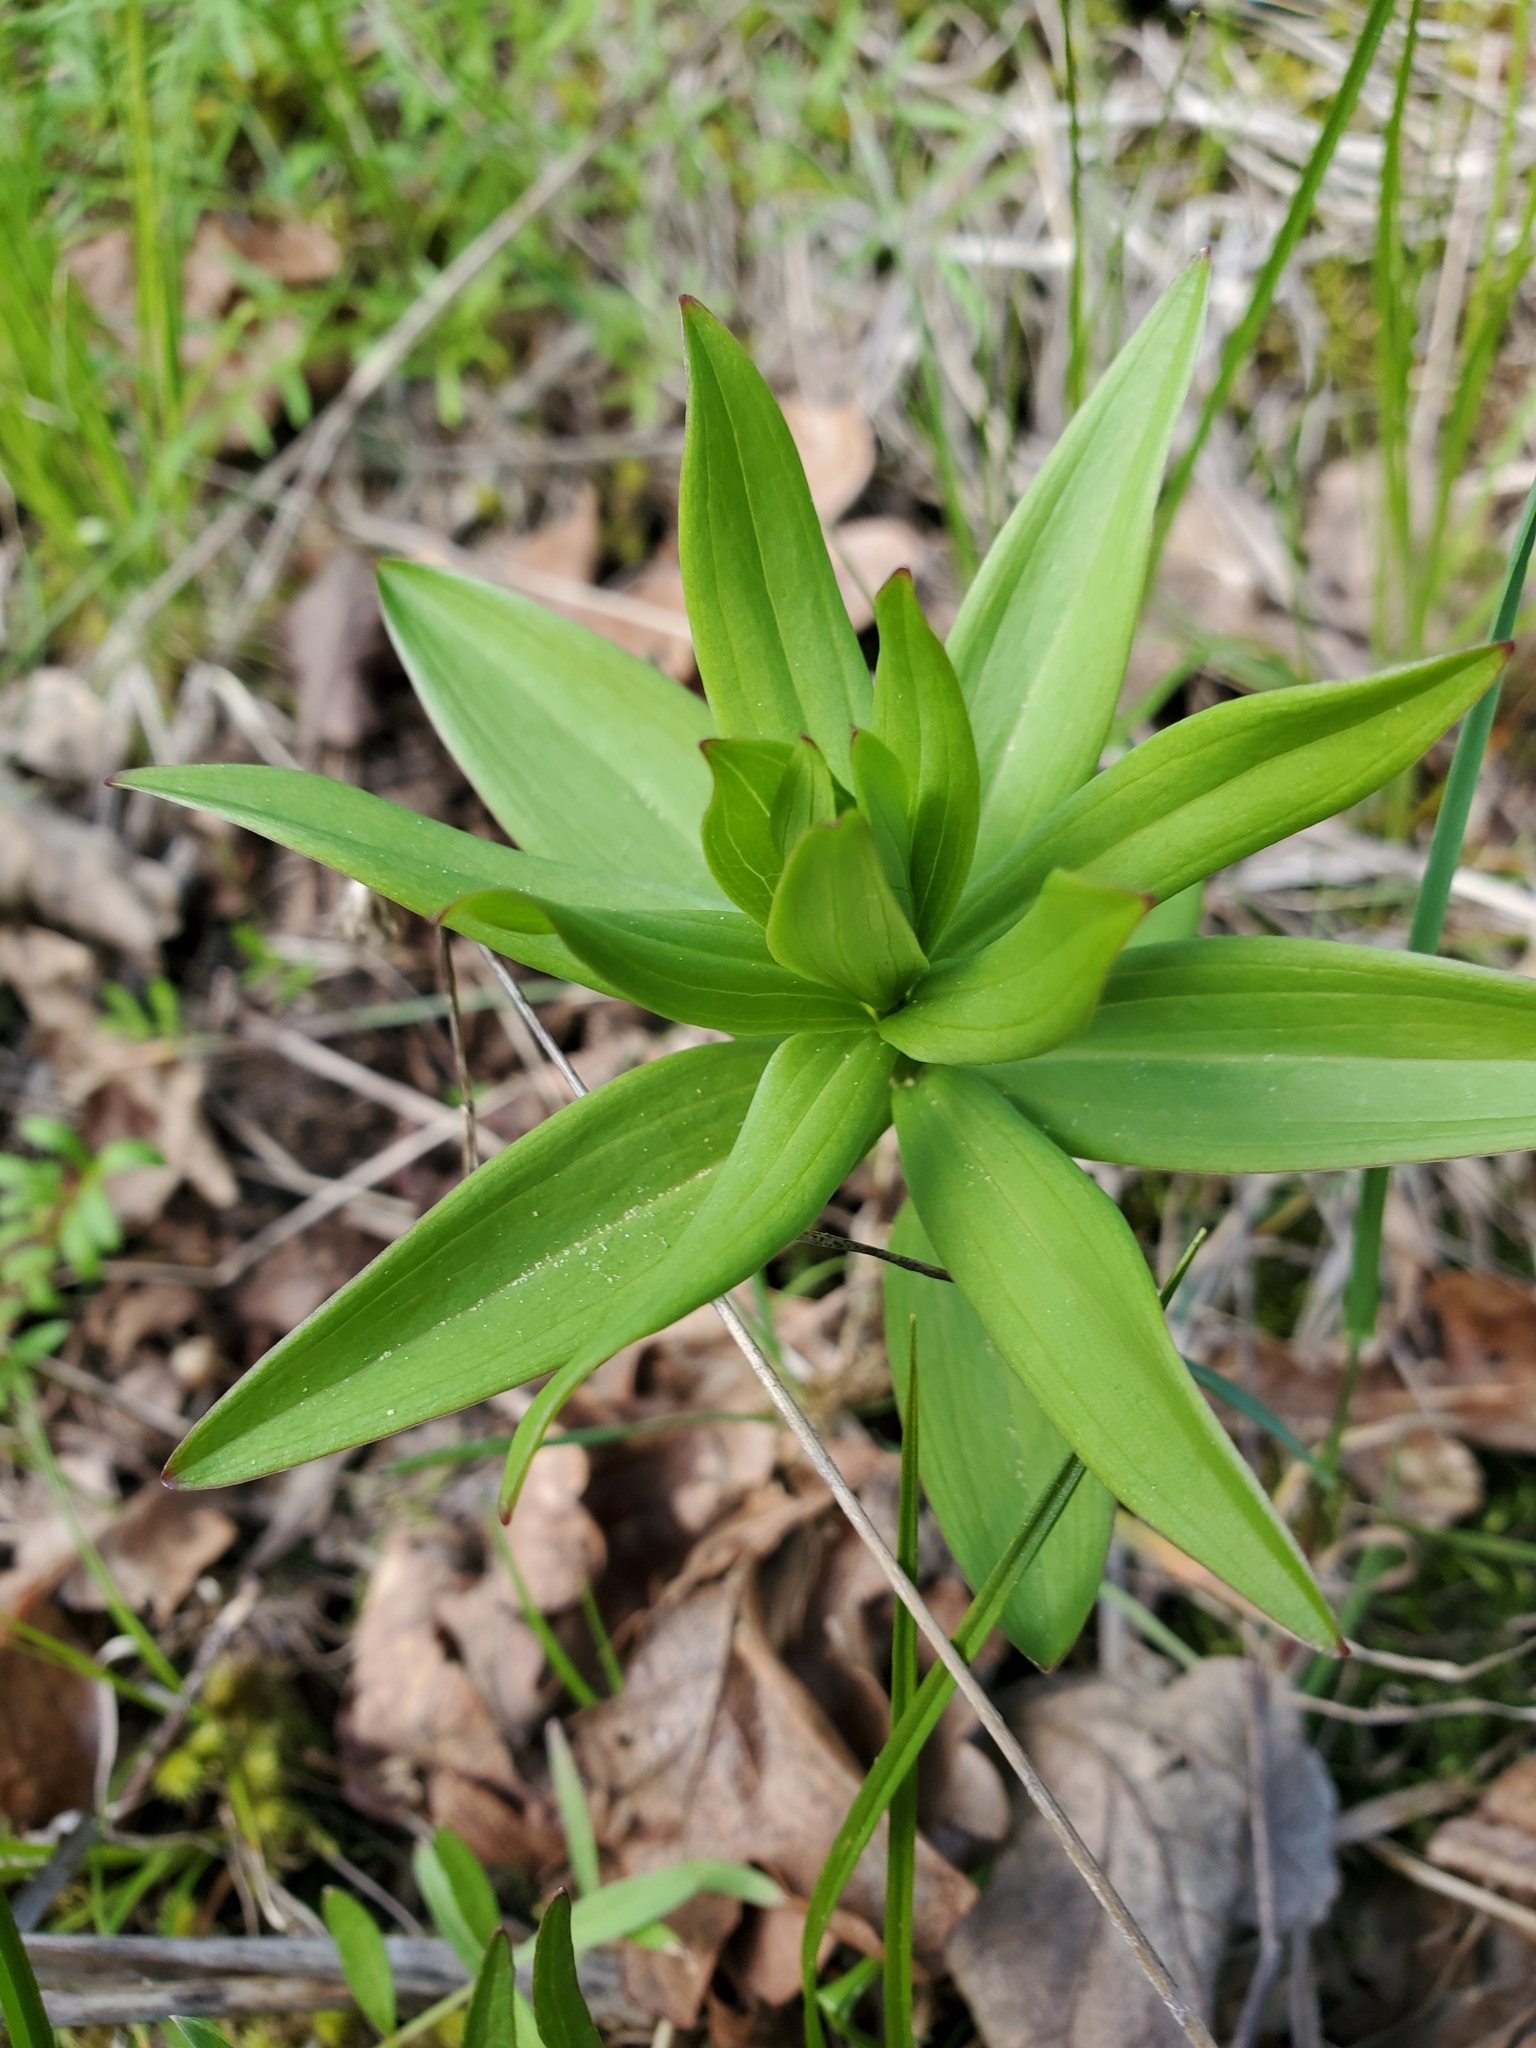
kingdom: Plantae
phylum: Tracheophyta
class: Liliopsida
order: Liliales
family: Liliaceae
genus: Lilium
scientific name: Lilium columbianum
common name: Columbia lily
